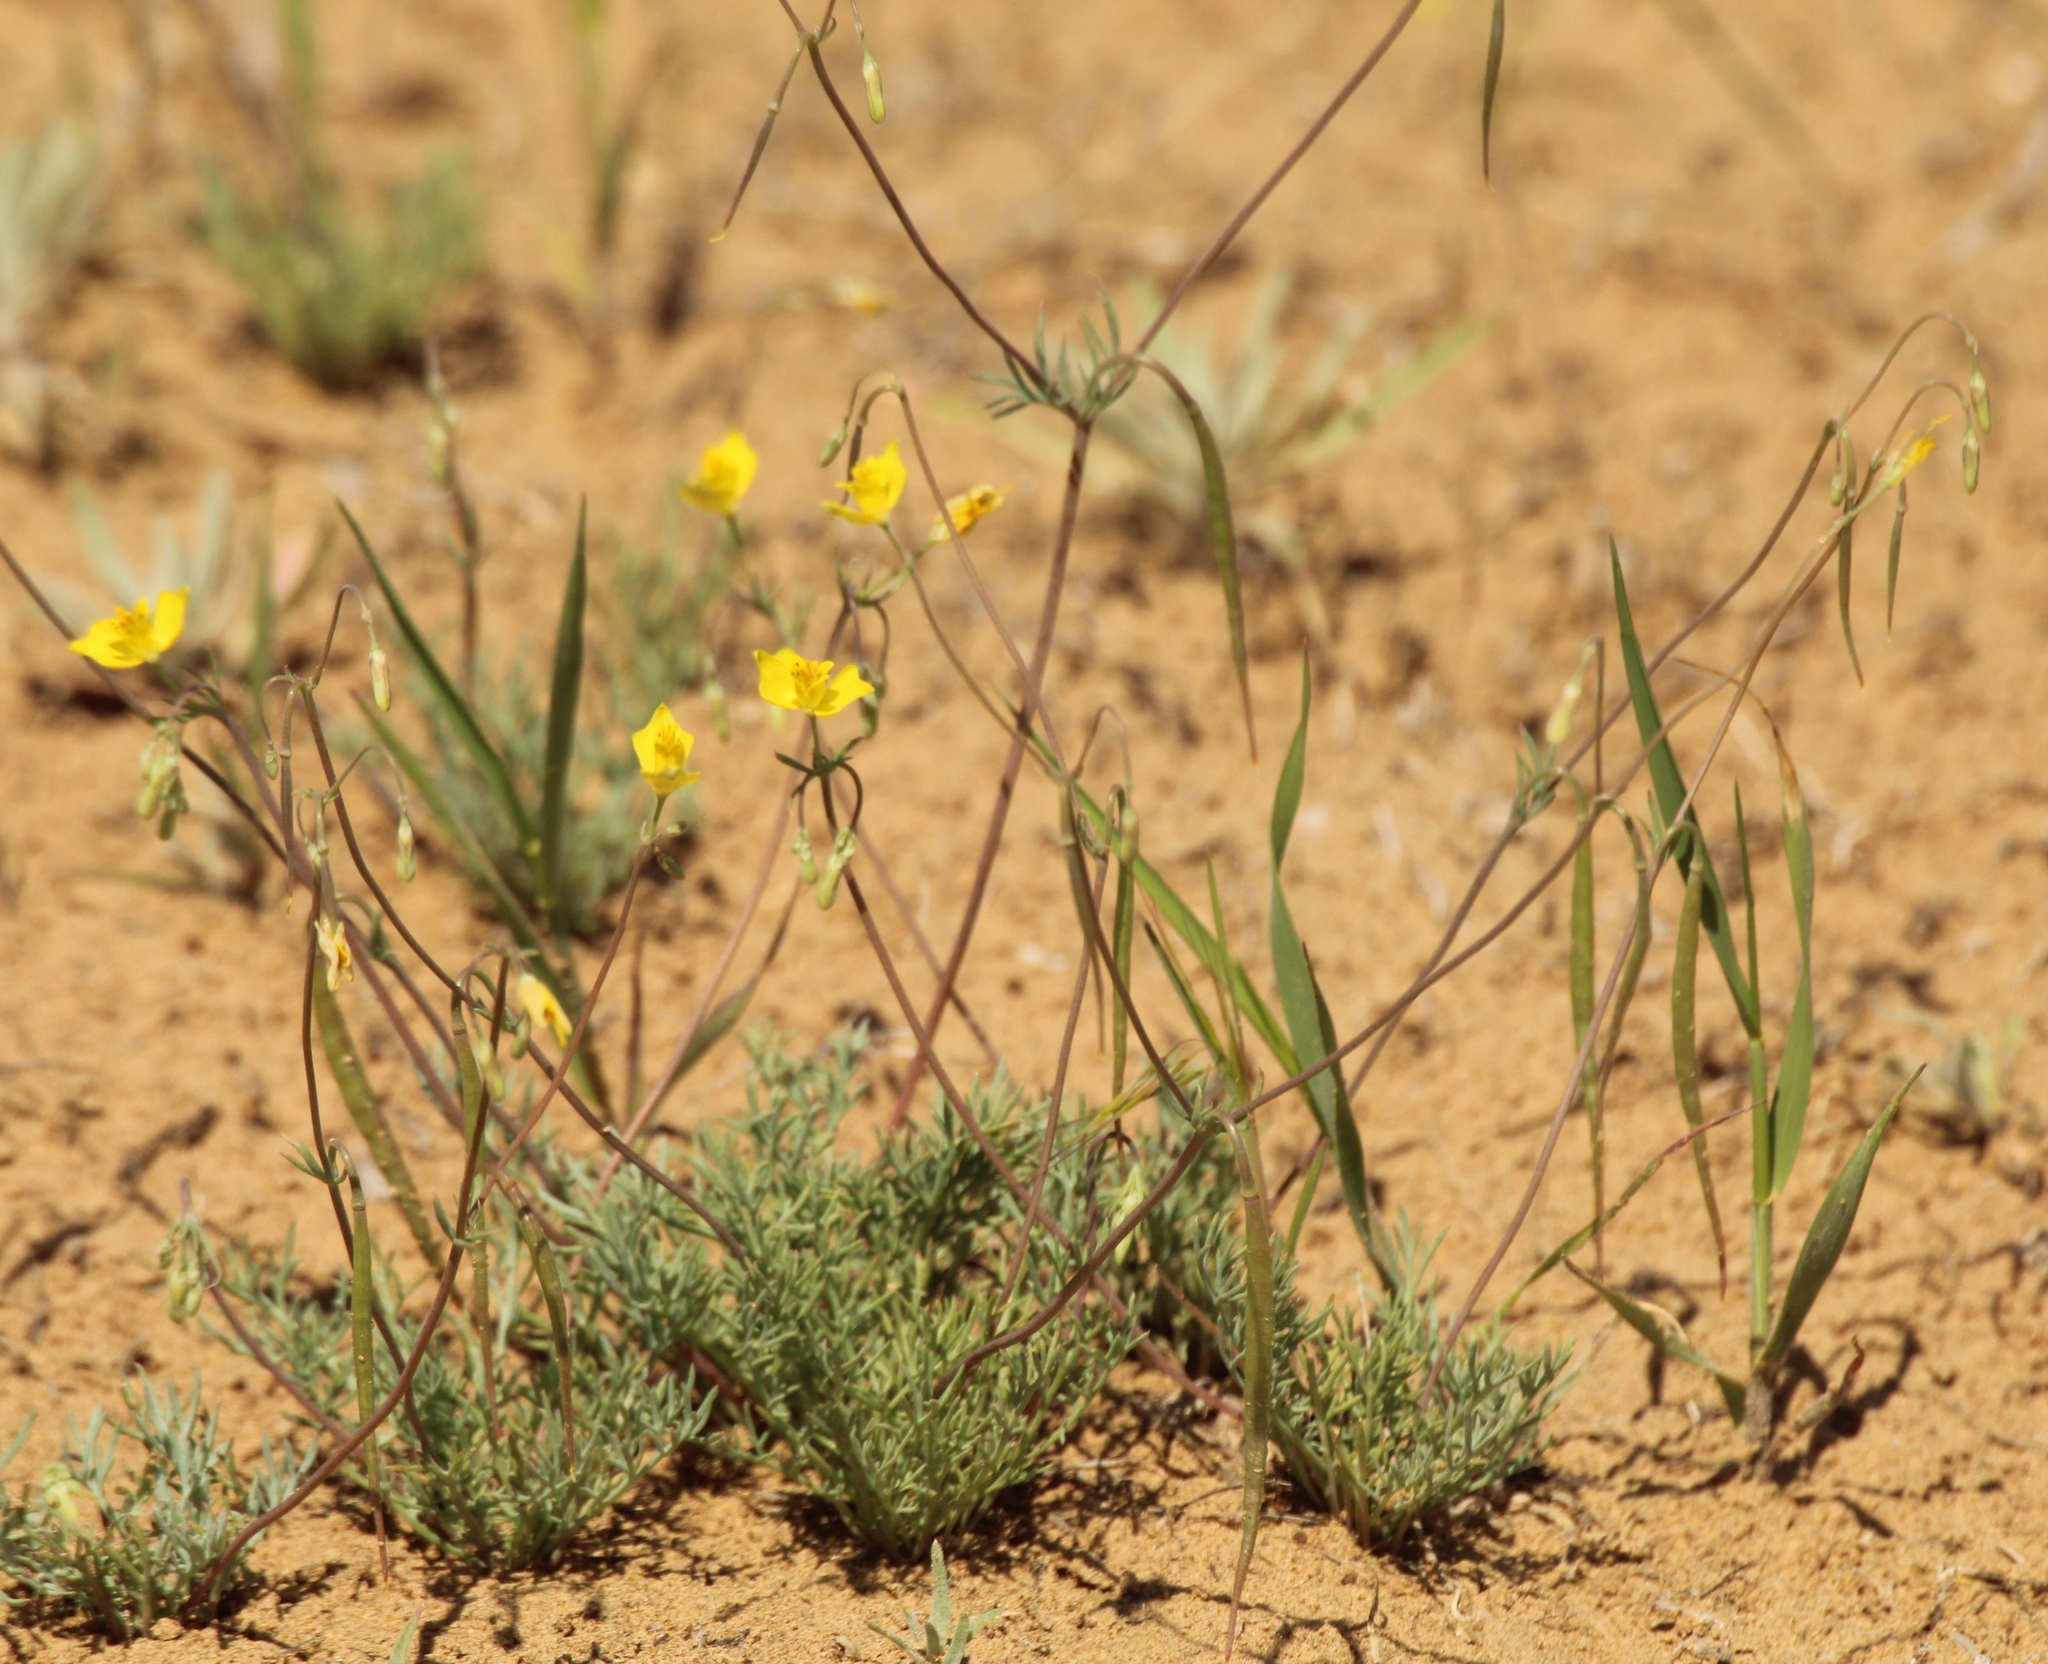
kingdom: Plantae
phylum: Tracheophyta
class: Magnoliopsida
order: Ranunculales
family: Papaveraceae
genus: Hypecoum
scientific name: Hypecoum pendulum
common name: Nodding hypecoum
